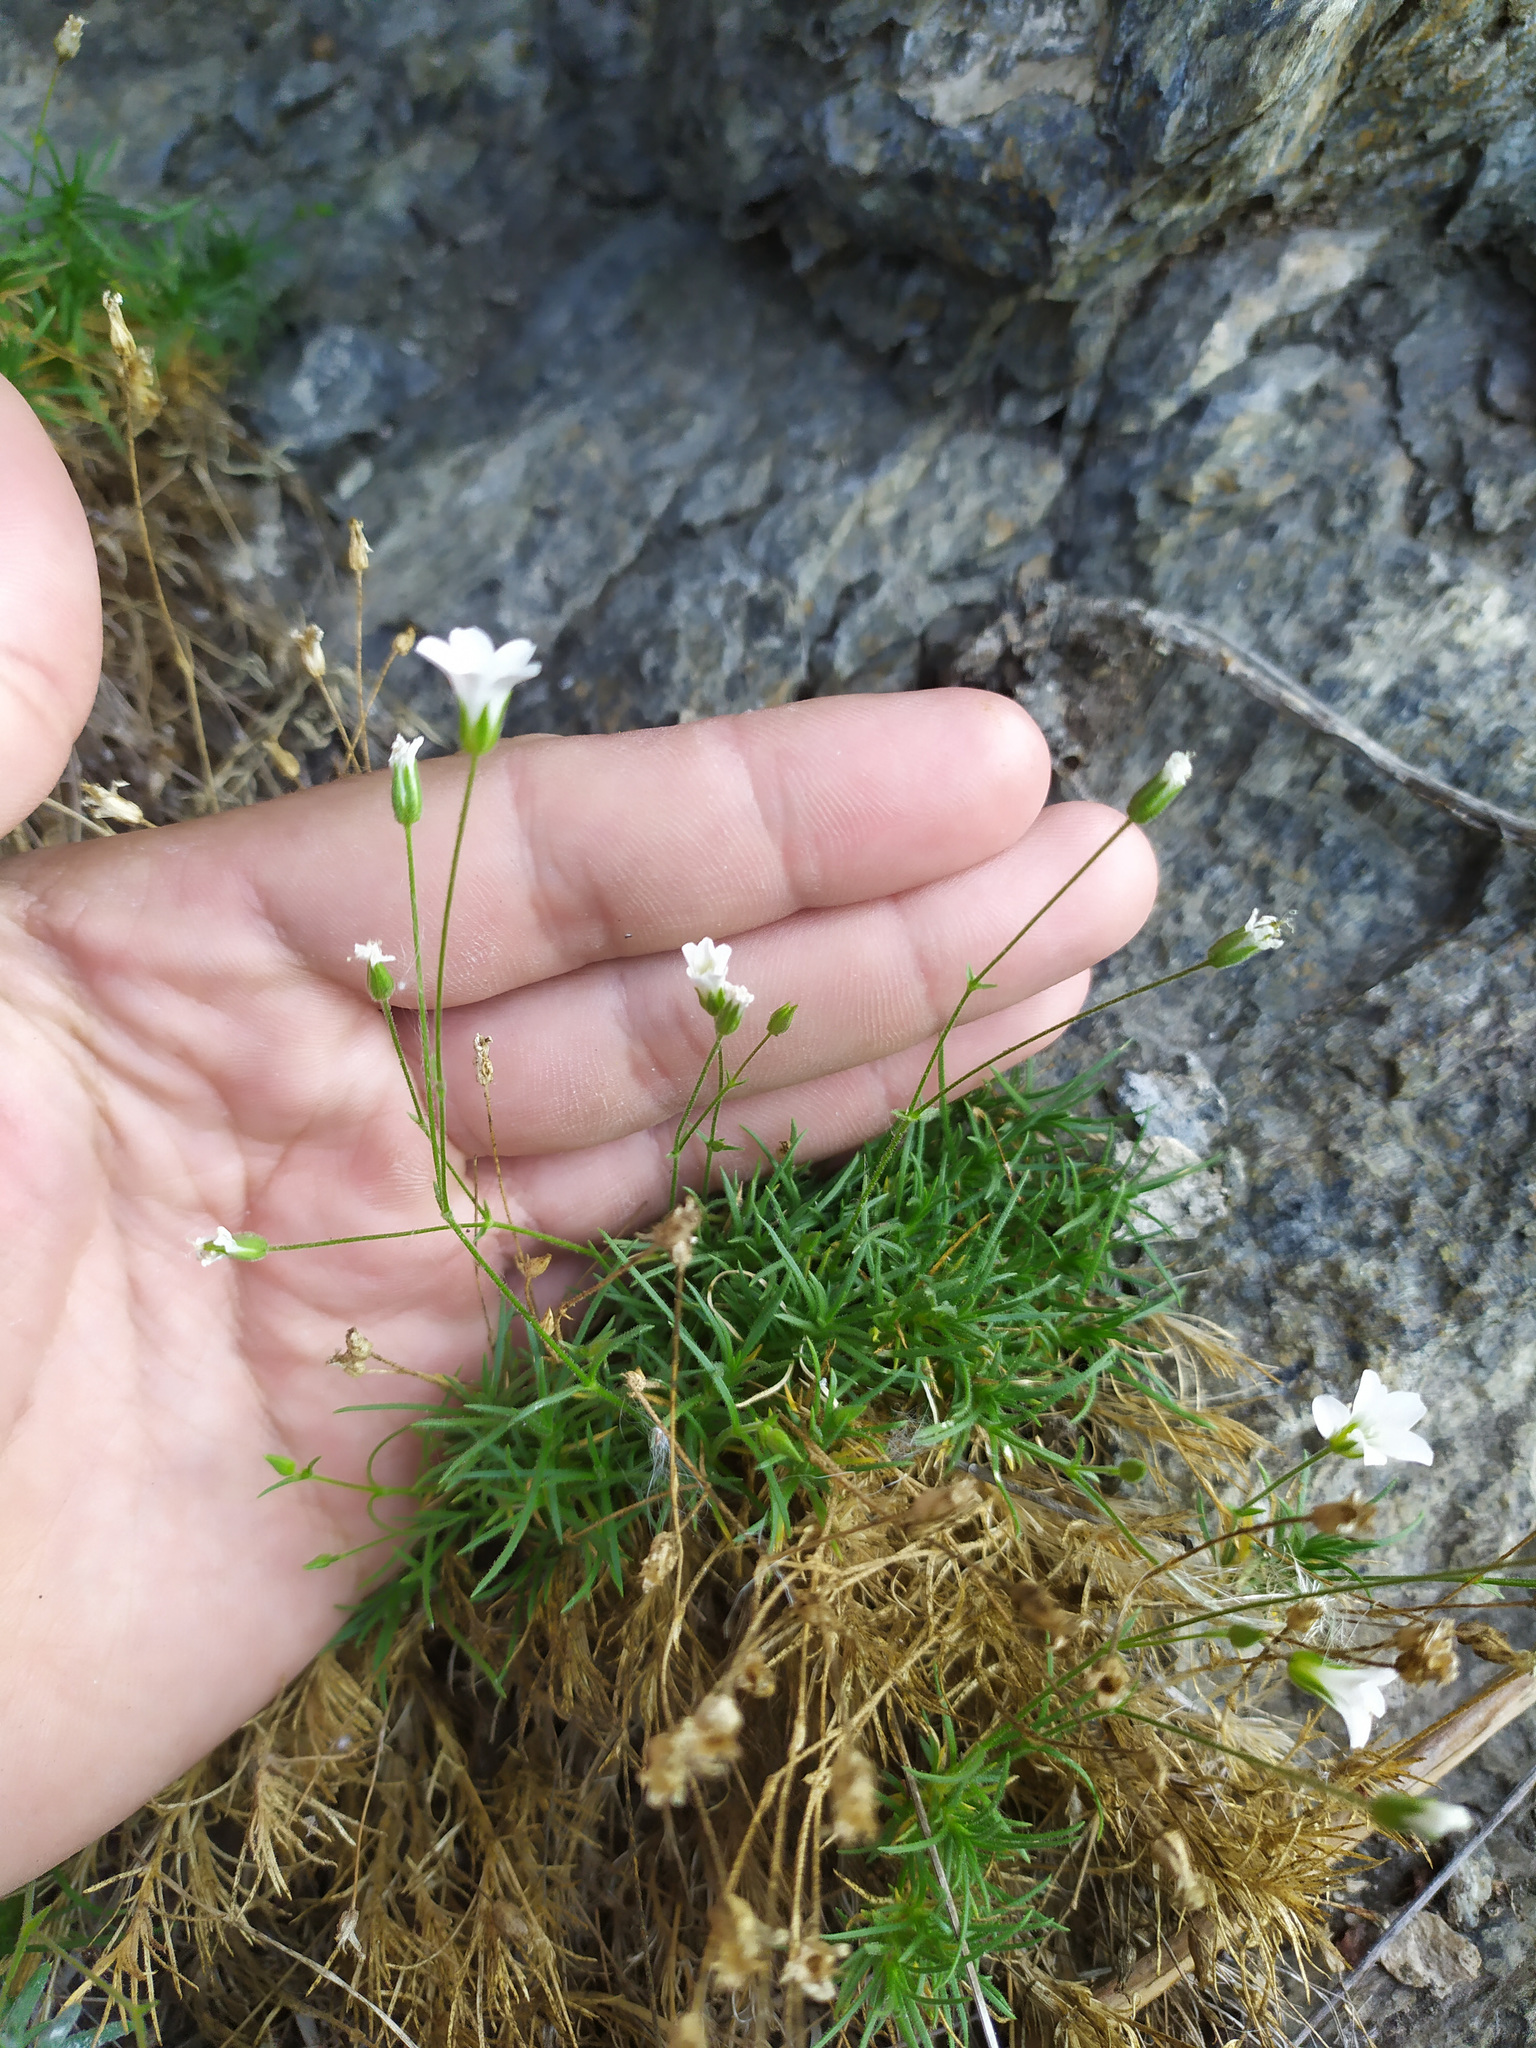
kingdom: Plantae
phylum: Tracheophyta
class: Magnoliopsida
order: Caryophyllales
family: Caryophyllaceae
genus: Sabulina
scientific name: Sabulina helmii
